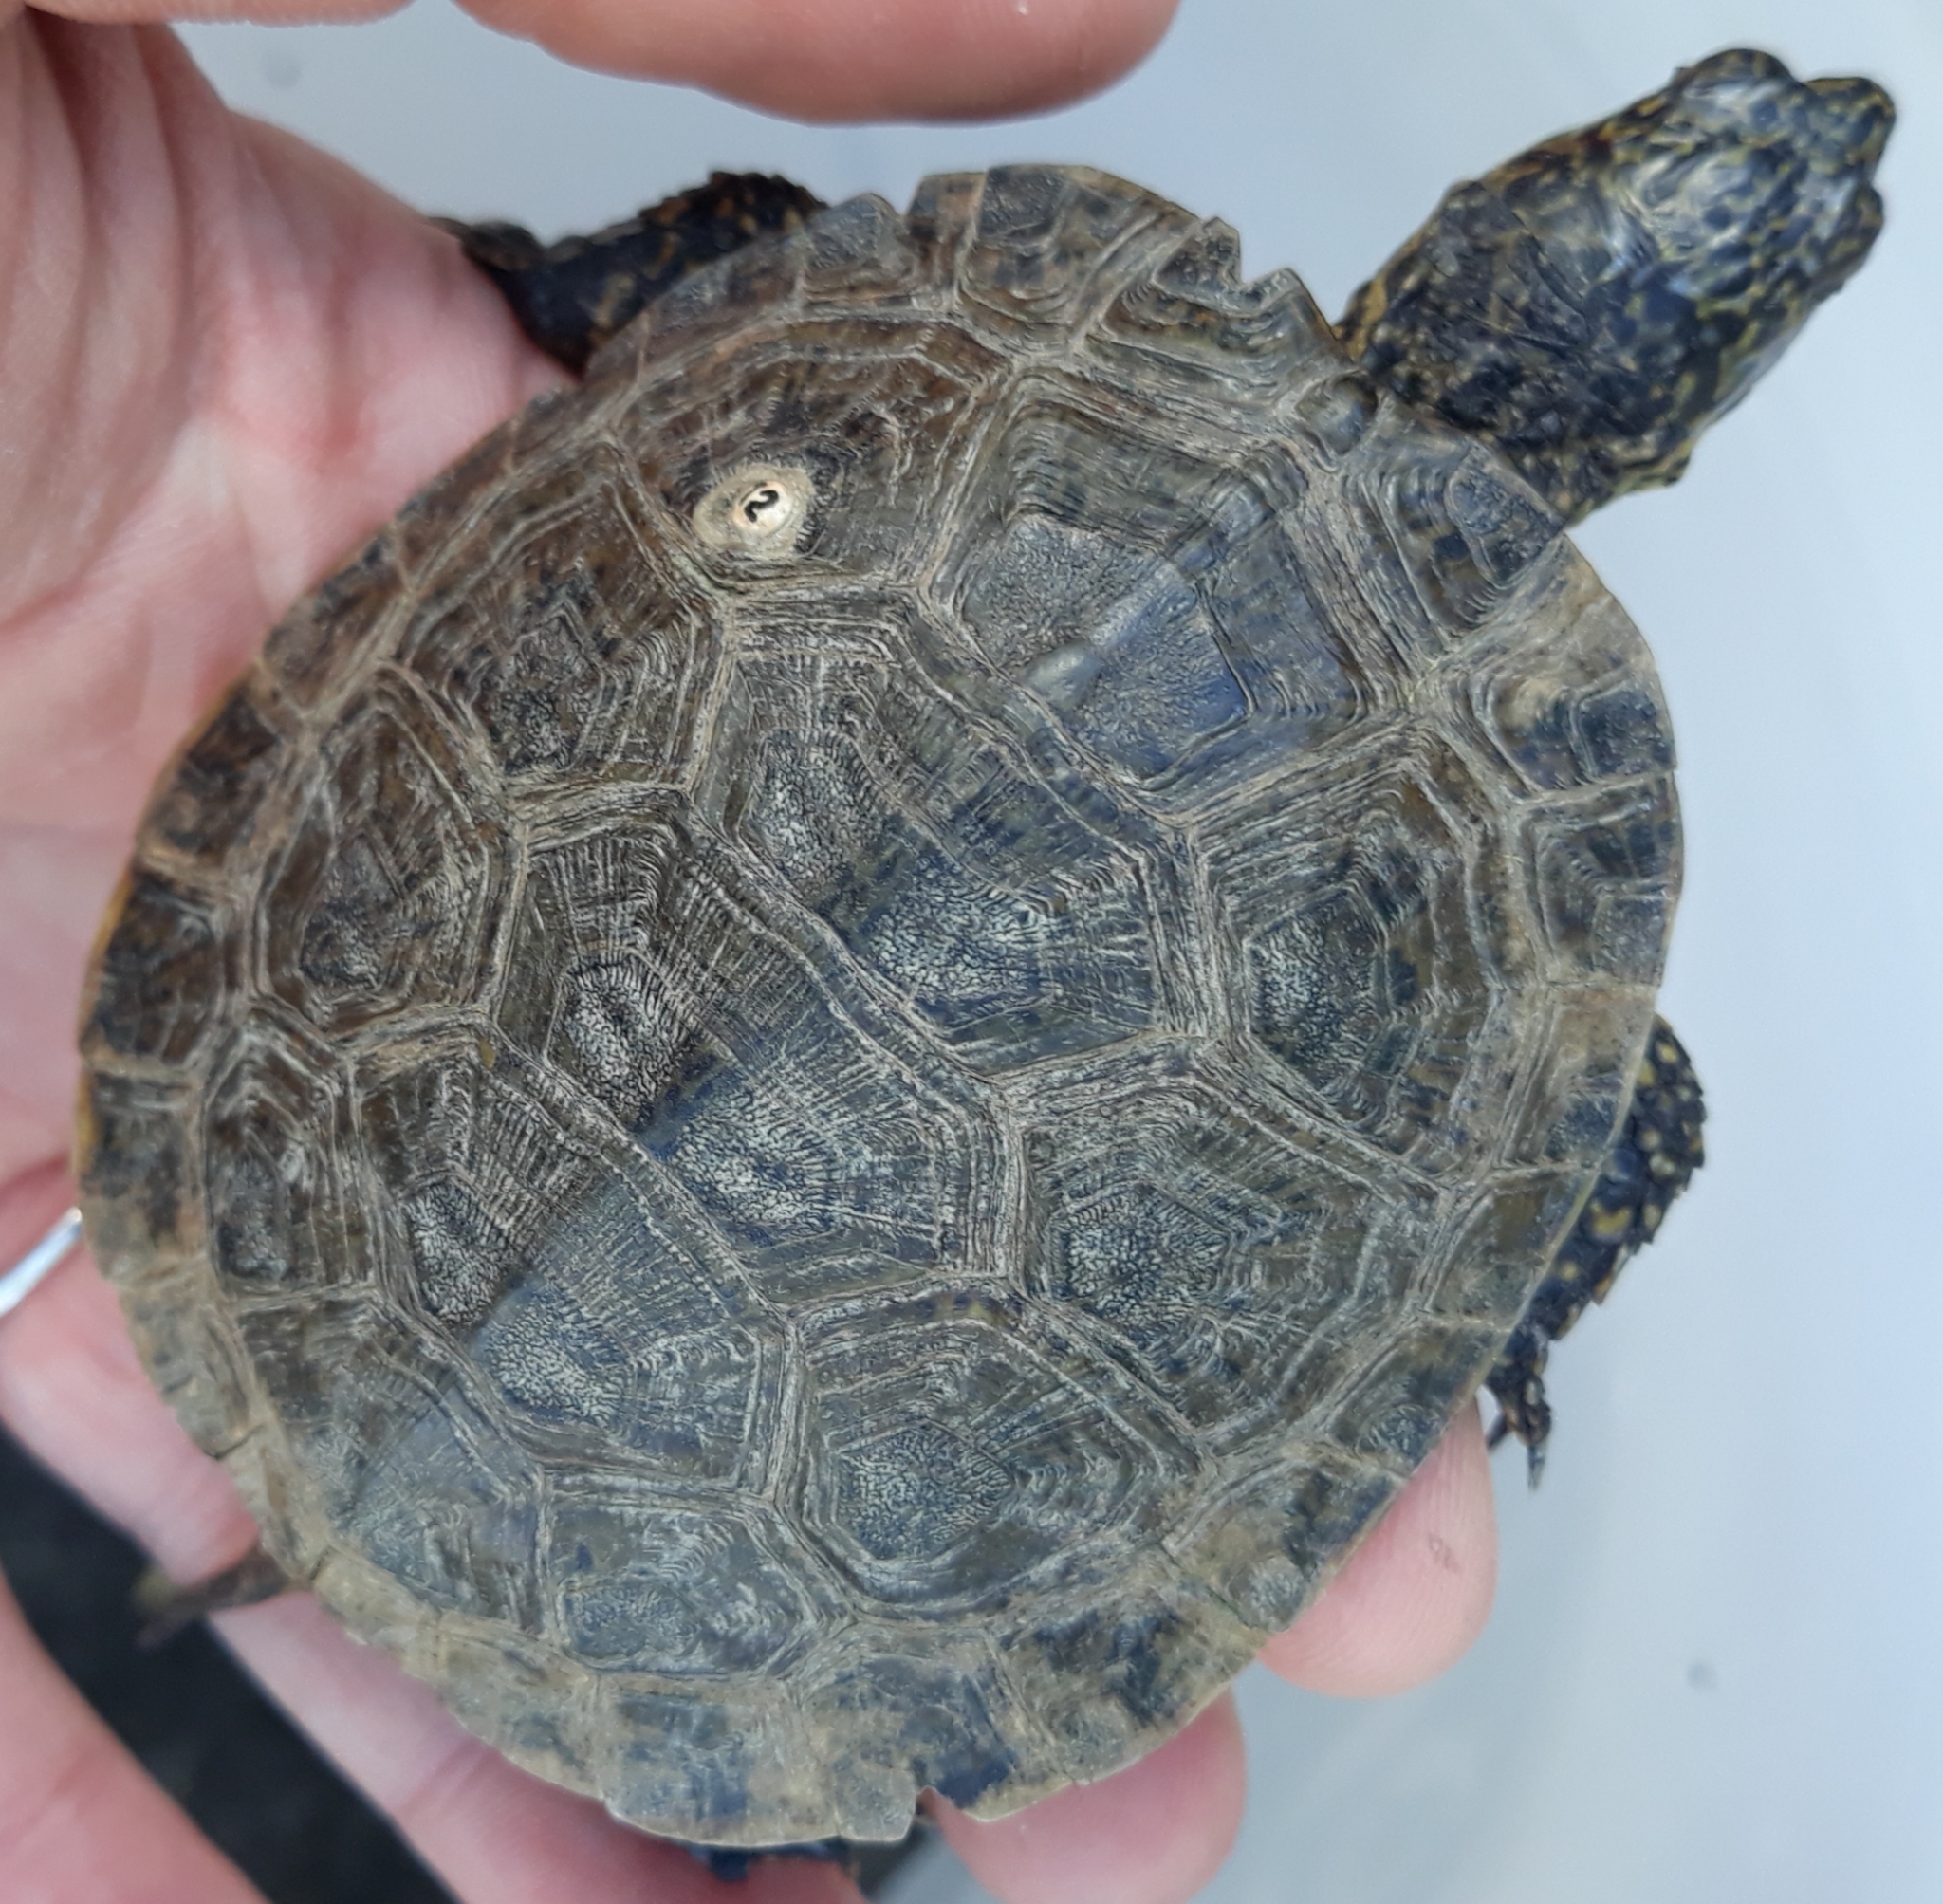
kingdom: Animalia
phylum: Chordata
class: Testudines
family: Emydidae
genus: Actinemys
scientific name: Actinemys marmorata
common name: Western pond turtle
